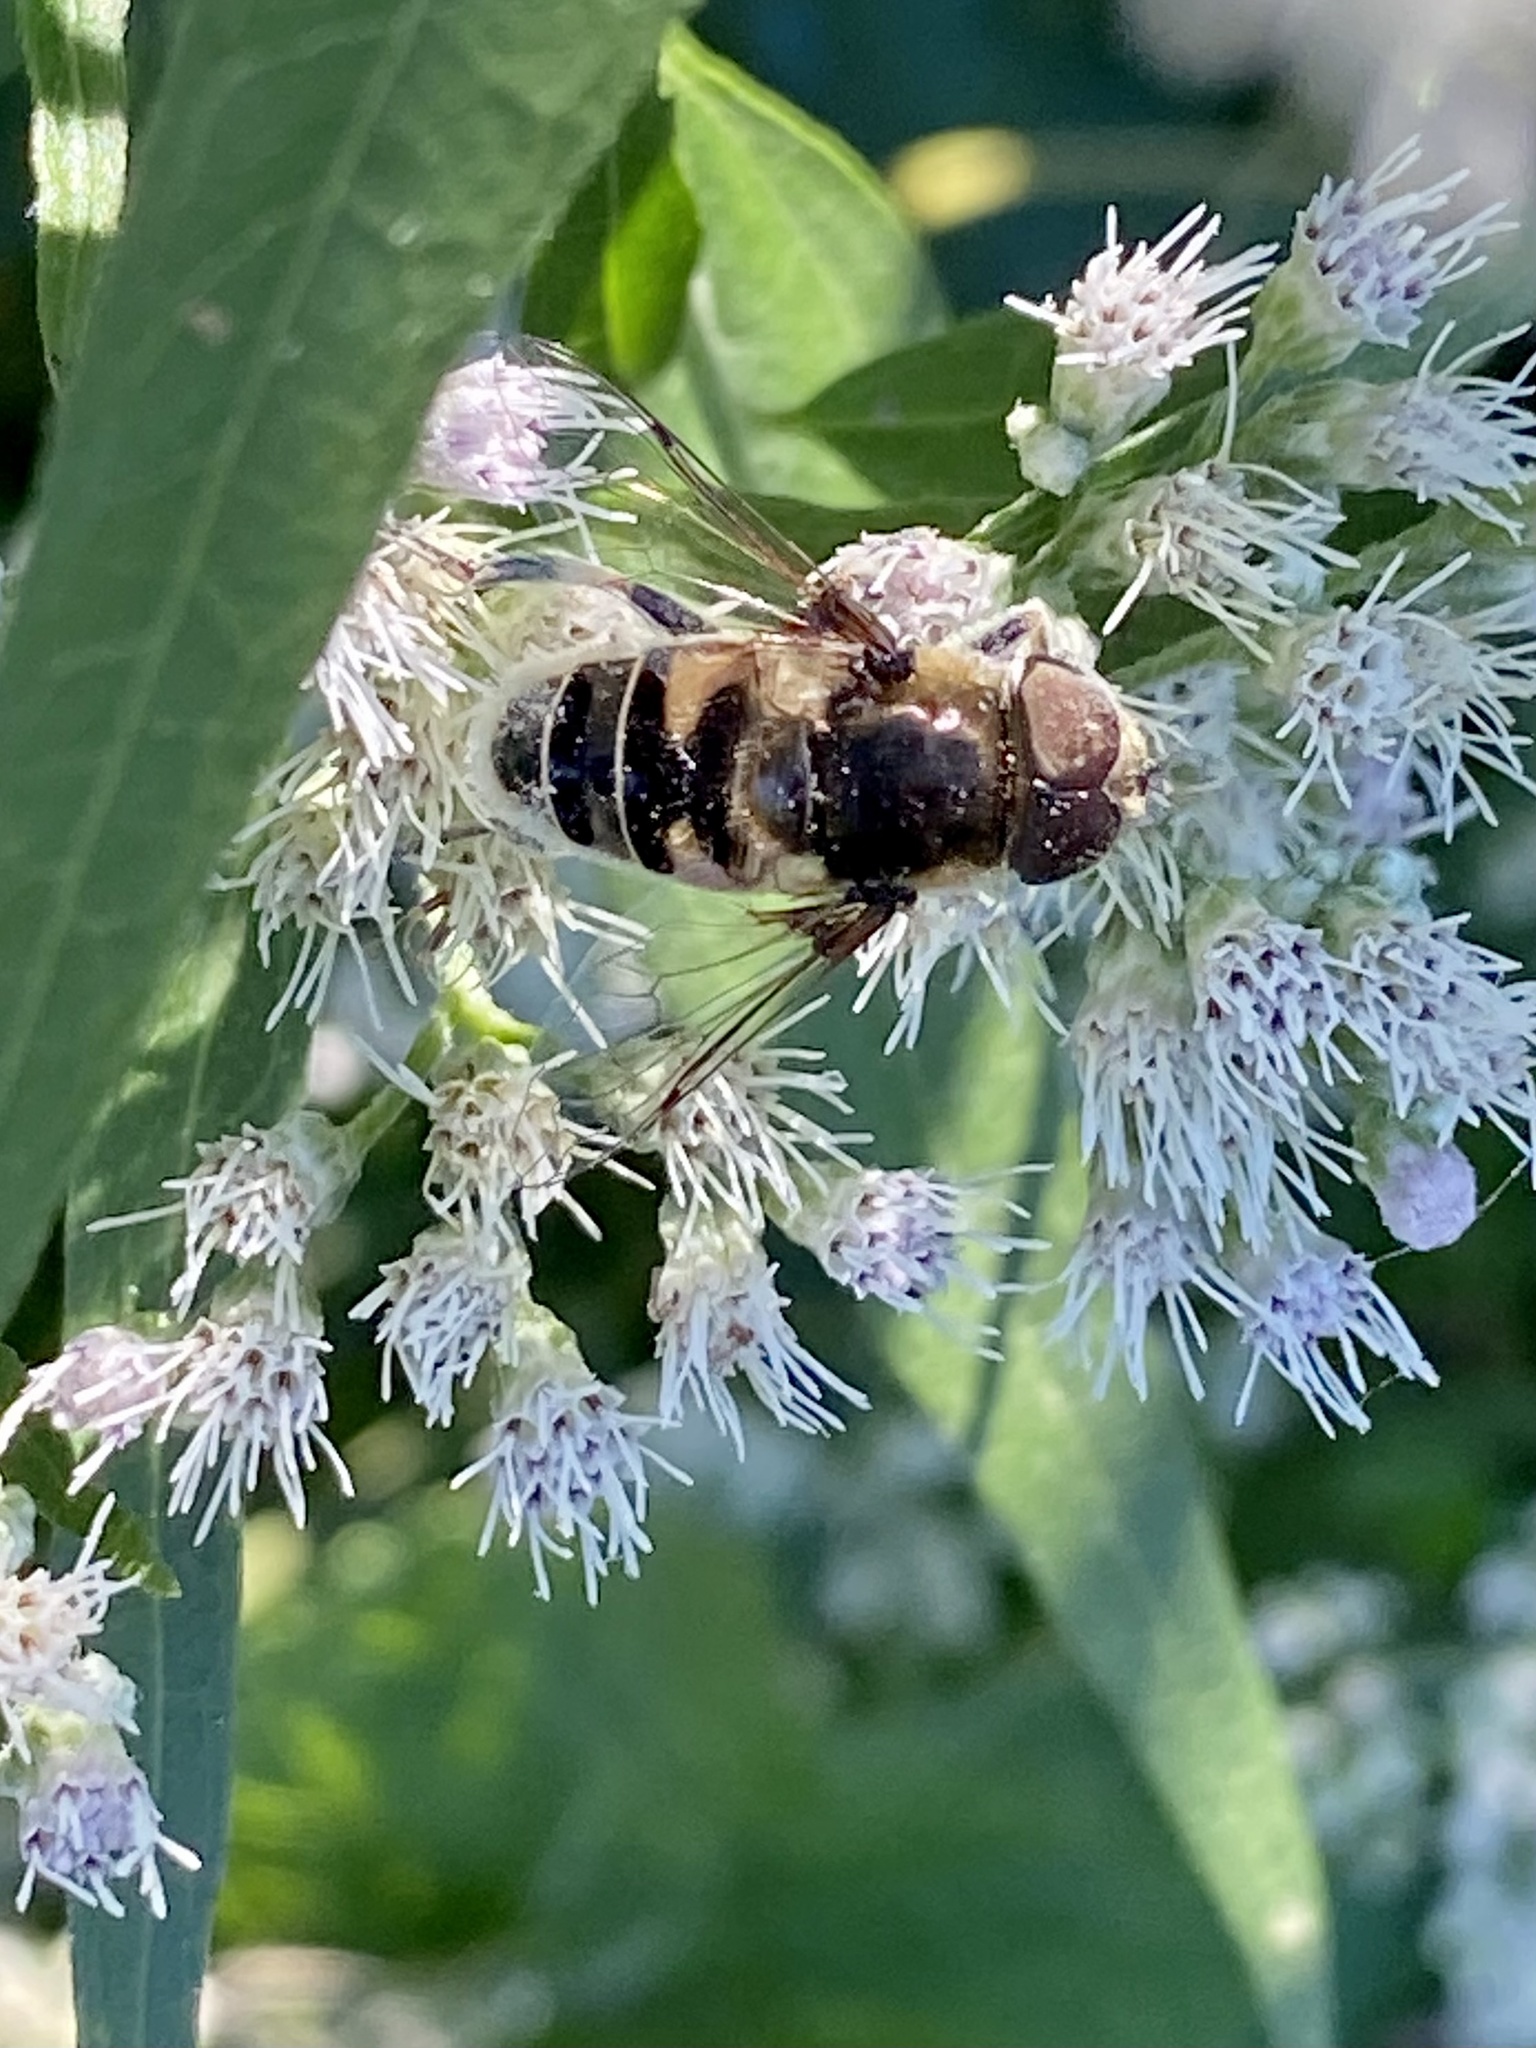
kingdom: Animalia
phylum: Arthropoda
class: Insecta
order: Diptera
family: Syrphidae
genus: Eristalis
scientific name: Eristalis dimidiata
